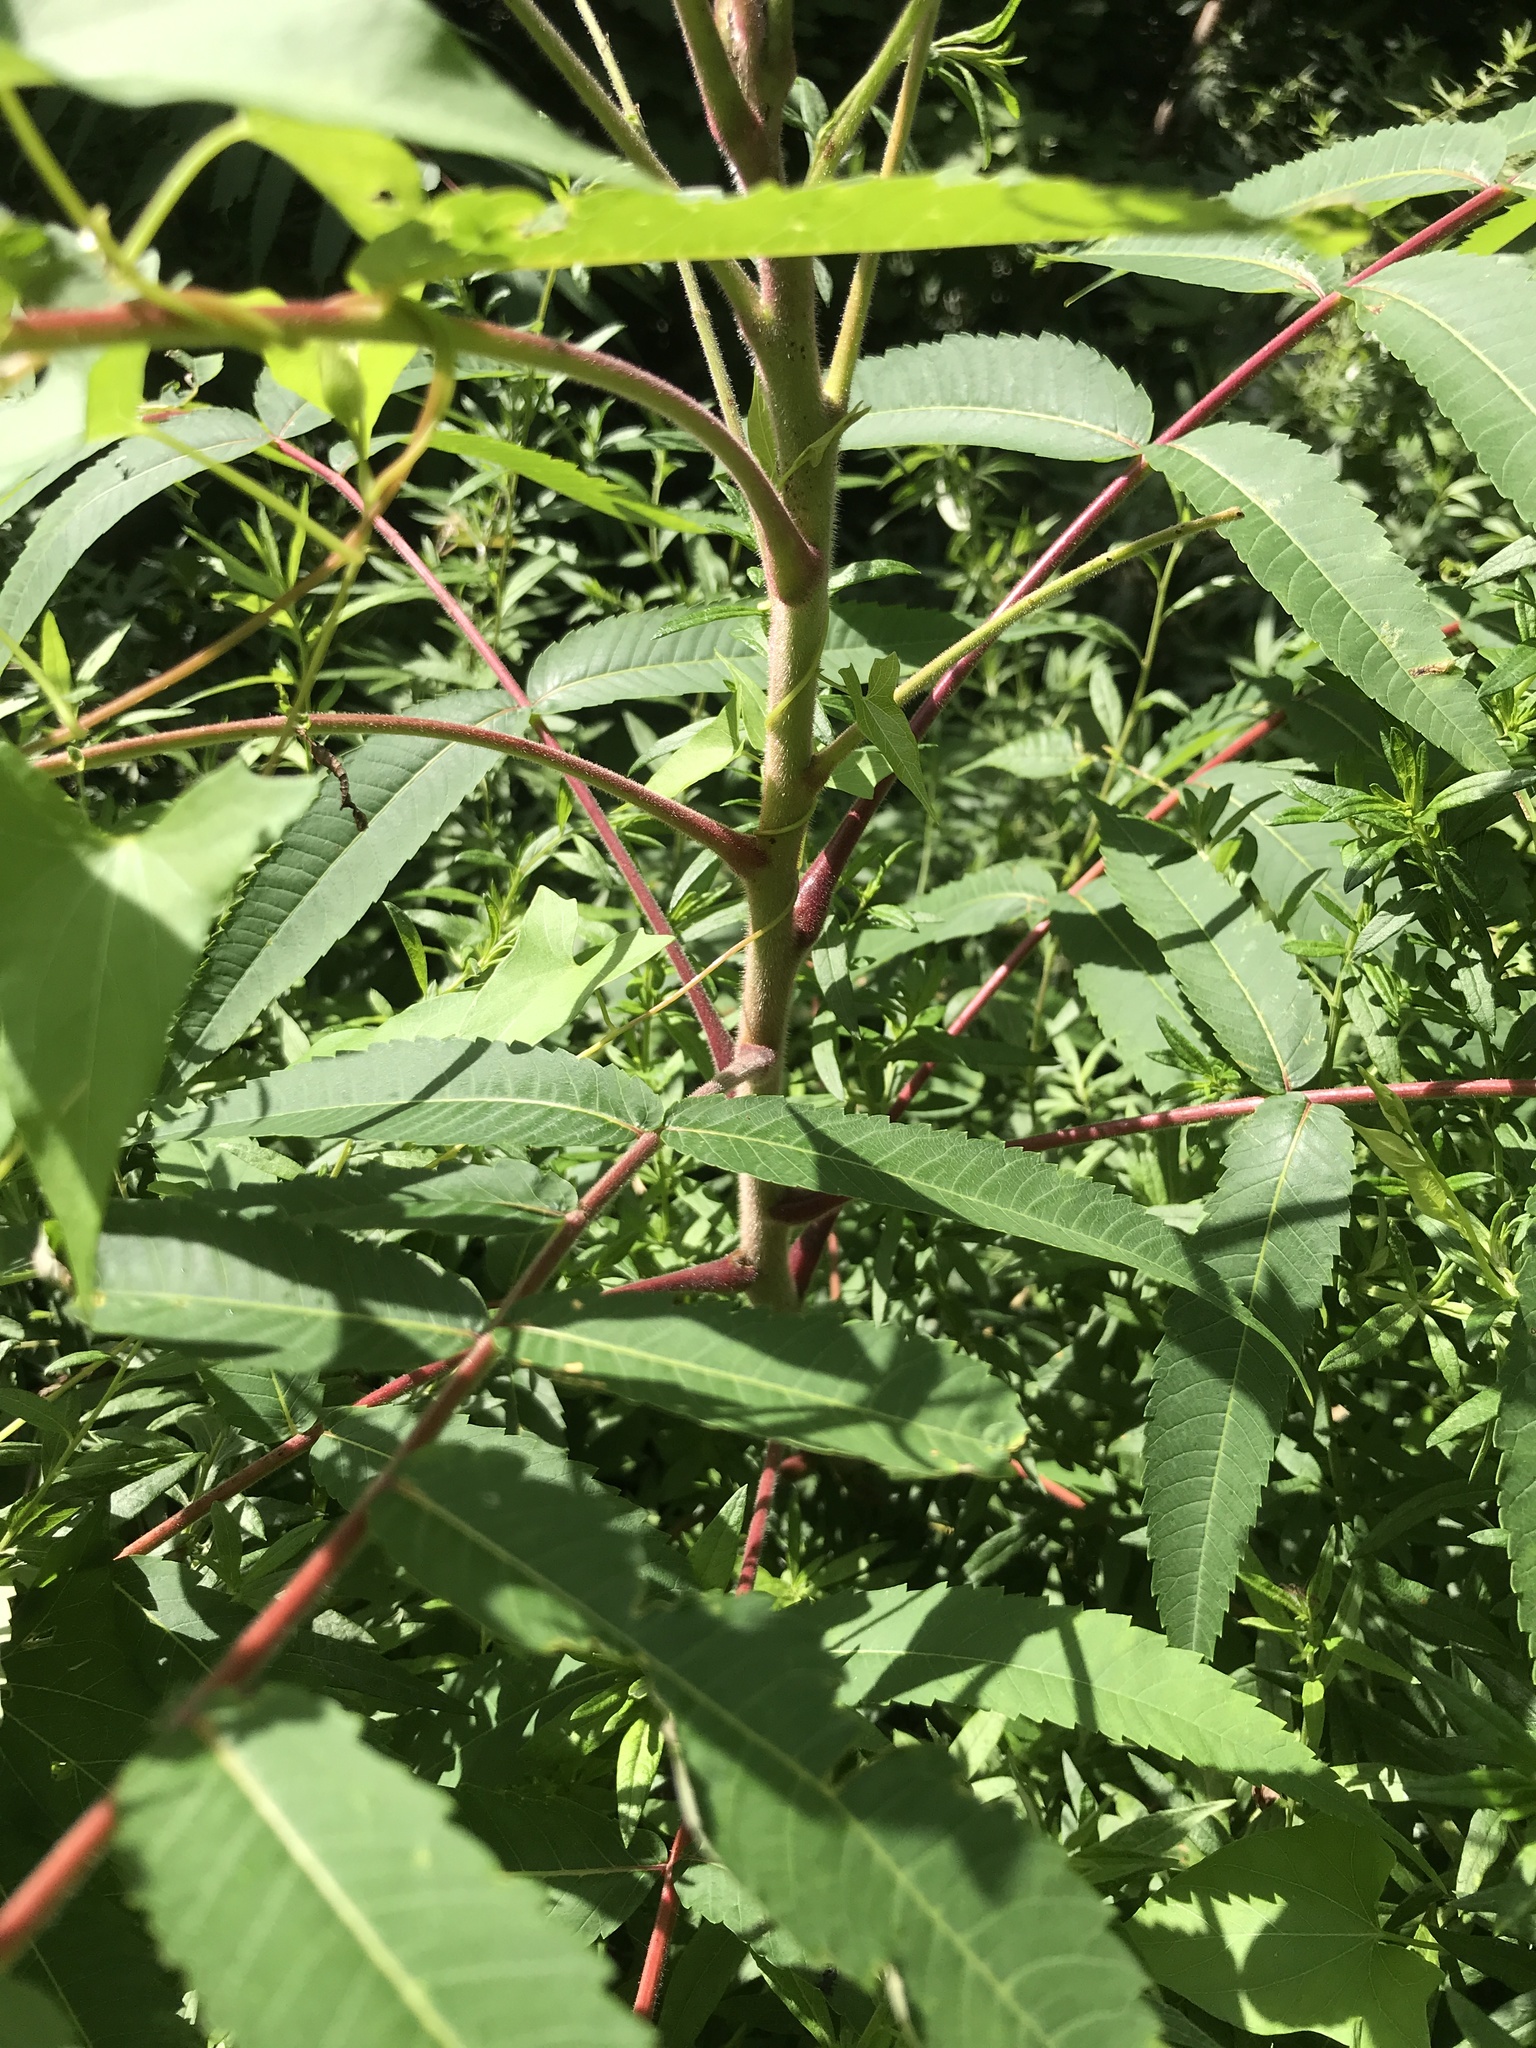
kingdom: Plantae
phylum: Tracheophyta
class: Magnoliopsida
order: Sapindales
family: Anacardiaceae
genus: Rhus
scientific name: Rhus typhina
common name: Staghorn sumac
